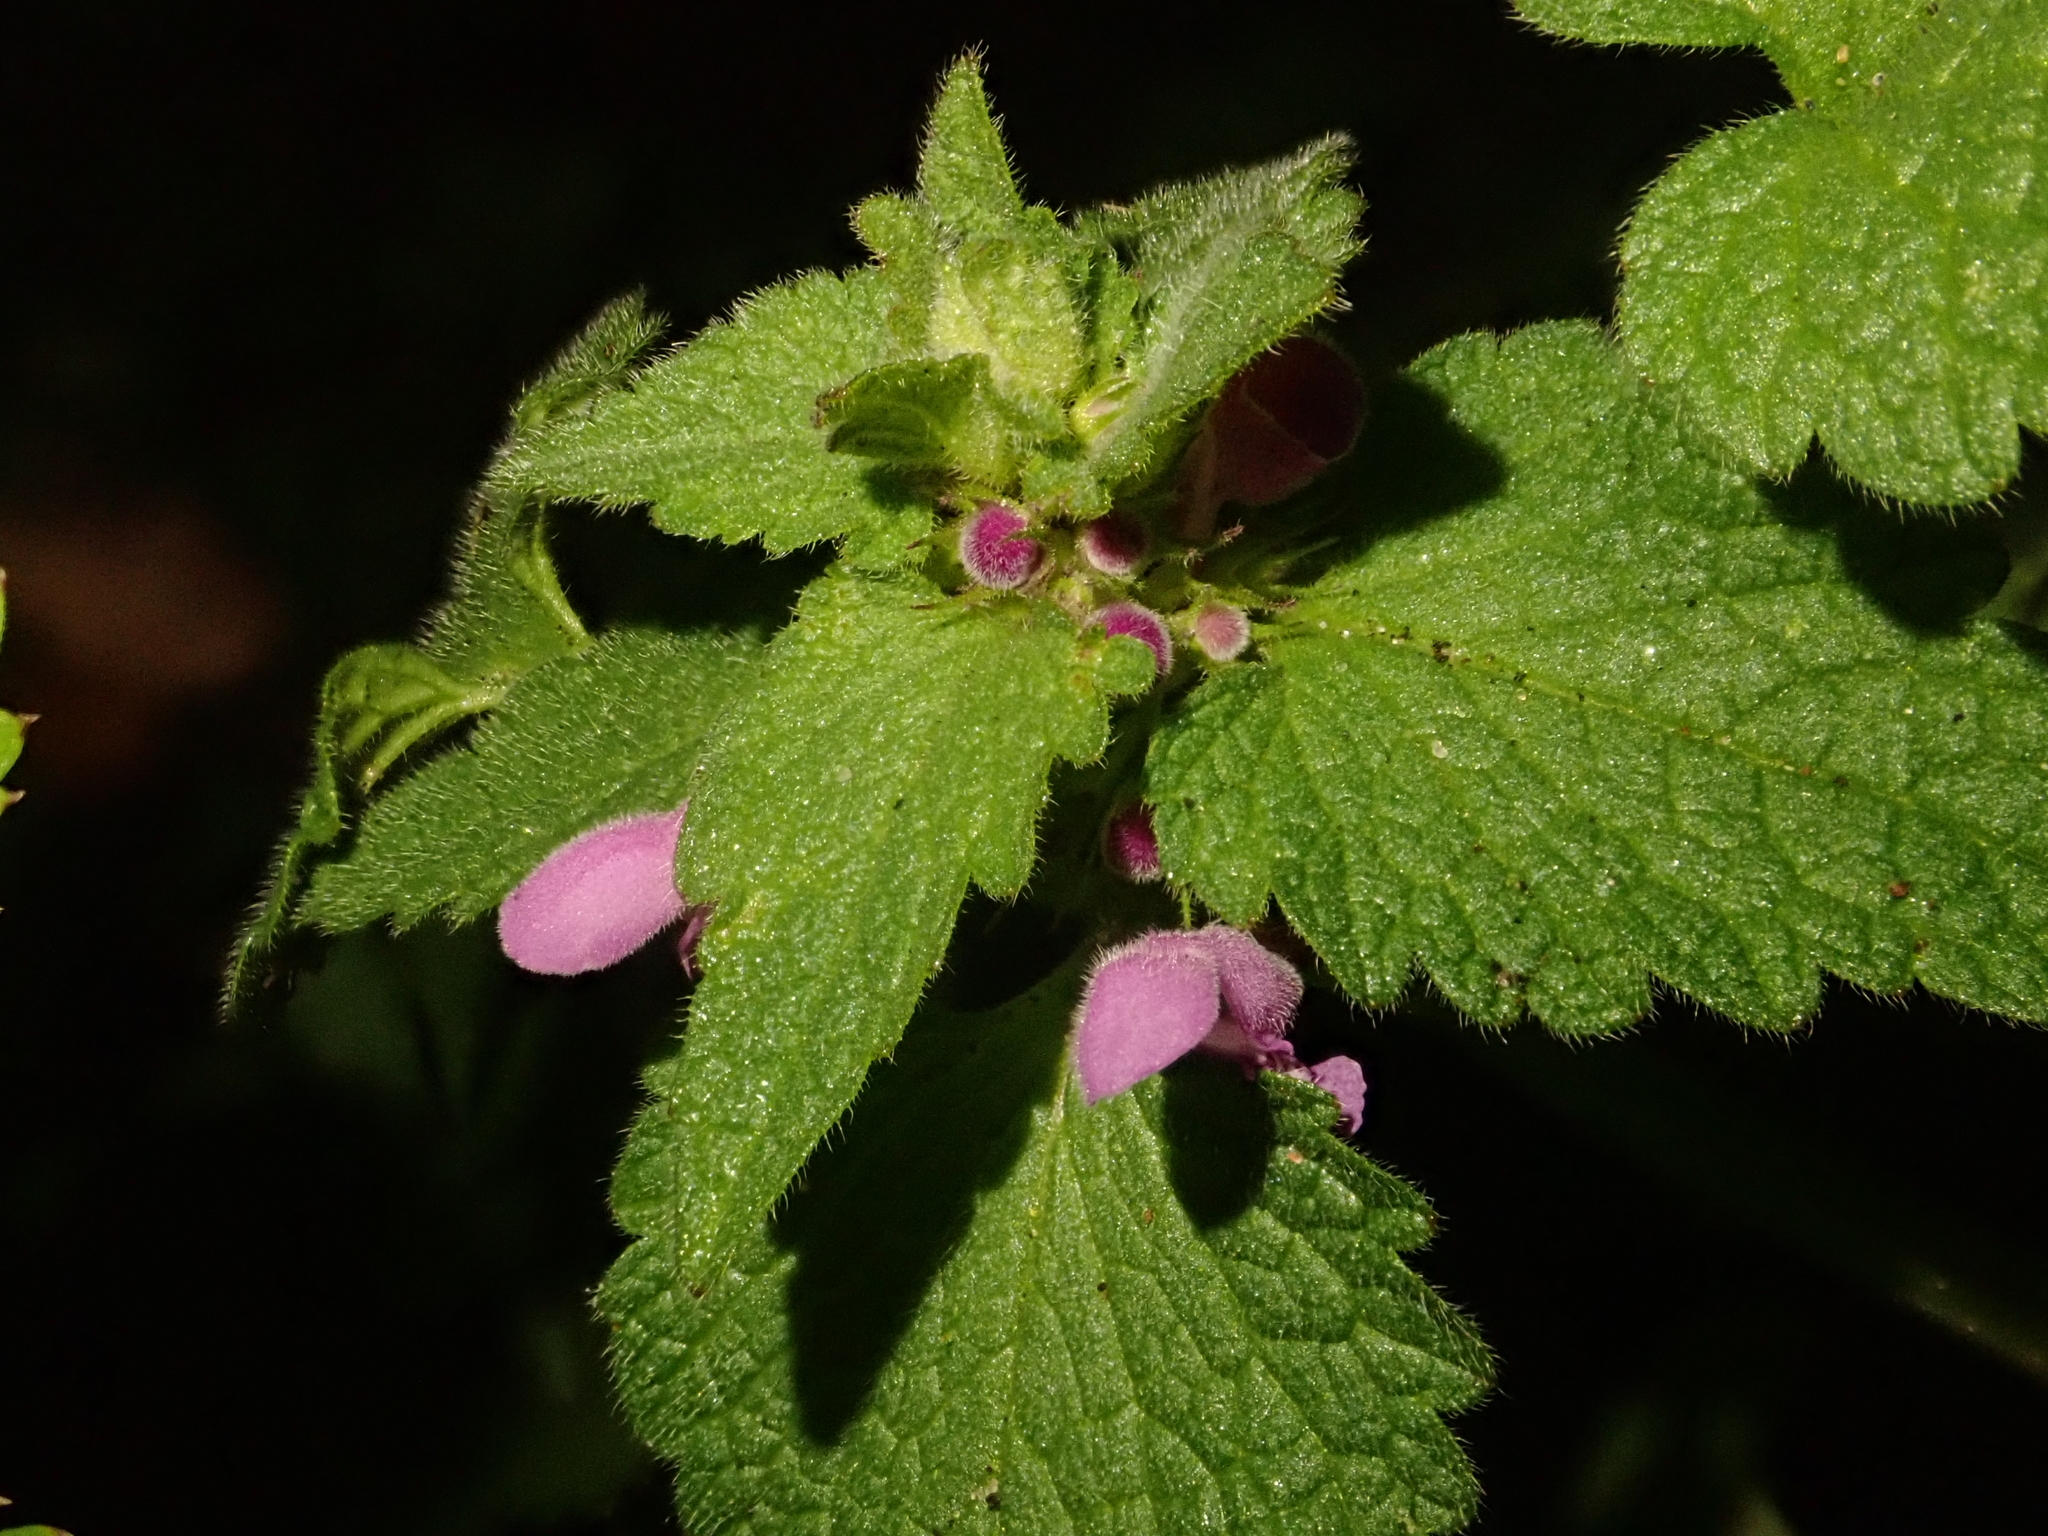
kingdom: Plantae
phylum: Tracheophyta
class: Magnoliopsida
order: Lamiales
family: Lamiaceae
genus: Lamium
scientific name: Lamium purpureum
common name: Red dead-nettle
